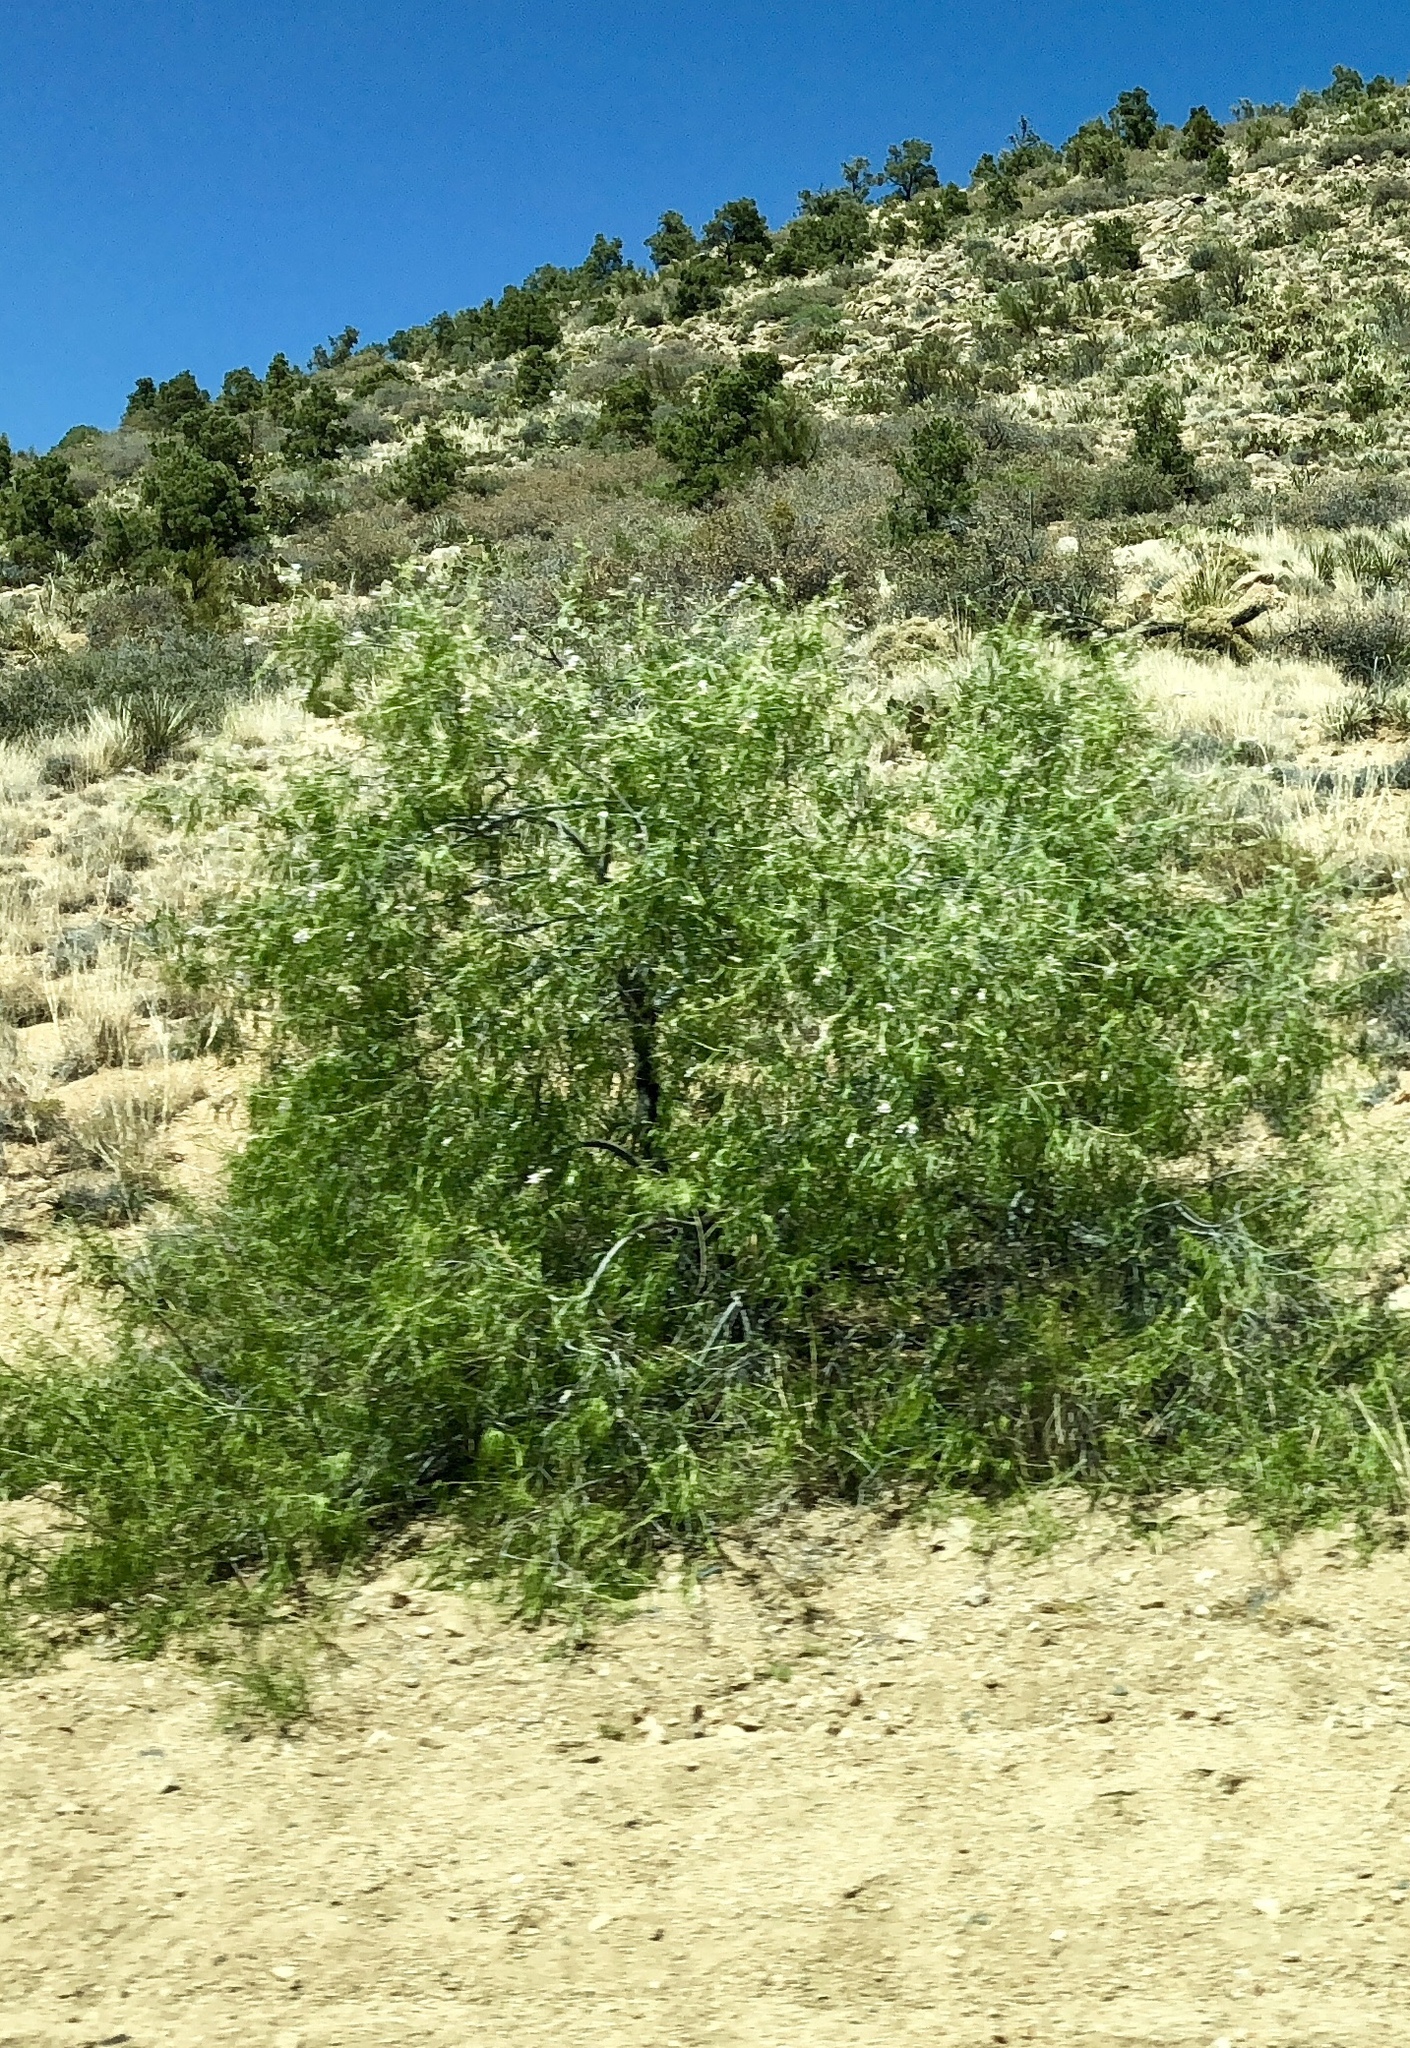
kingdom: Plantae
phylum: Tracheophyta
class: Magnoliopsida
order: Lamiales
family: Bignoniaceae
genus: Chilopsis
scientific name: Chilopsis linearis
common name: Desert-willow
